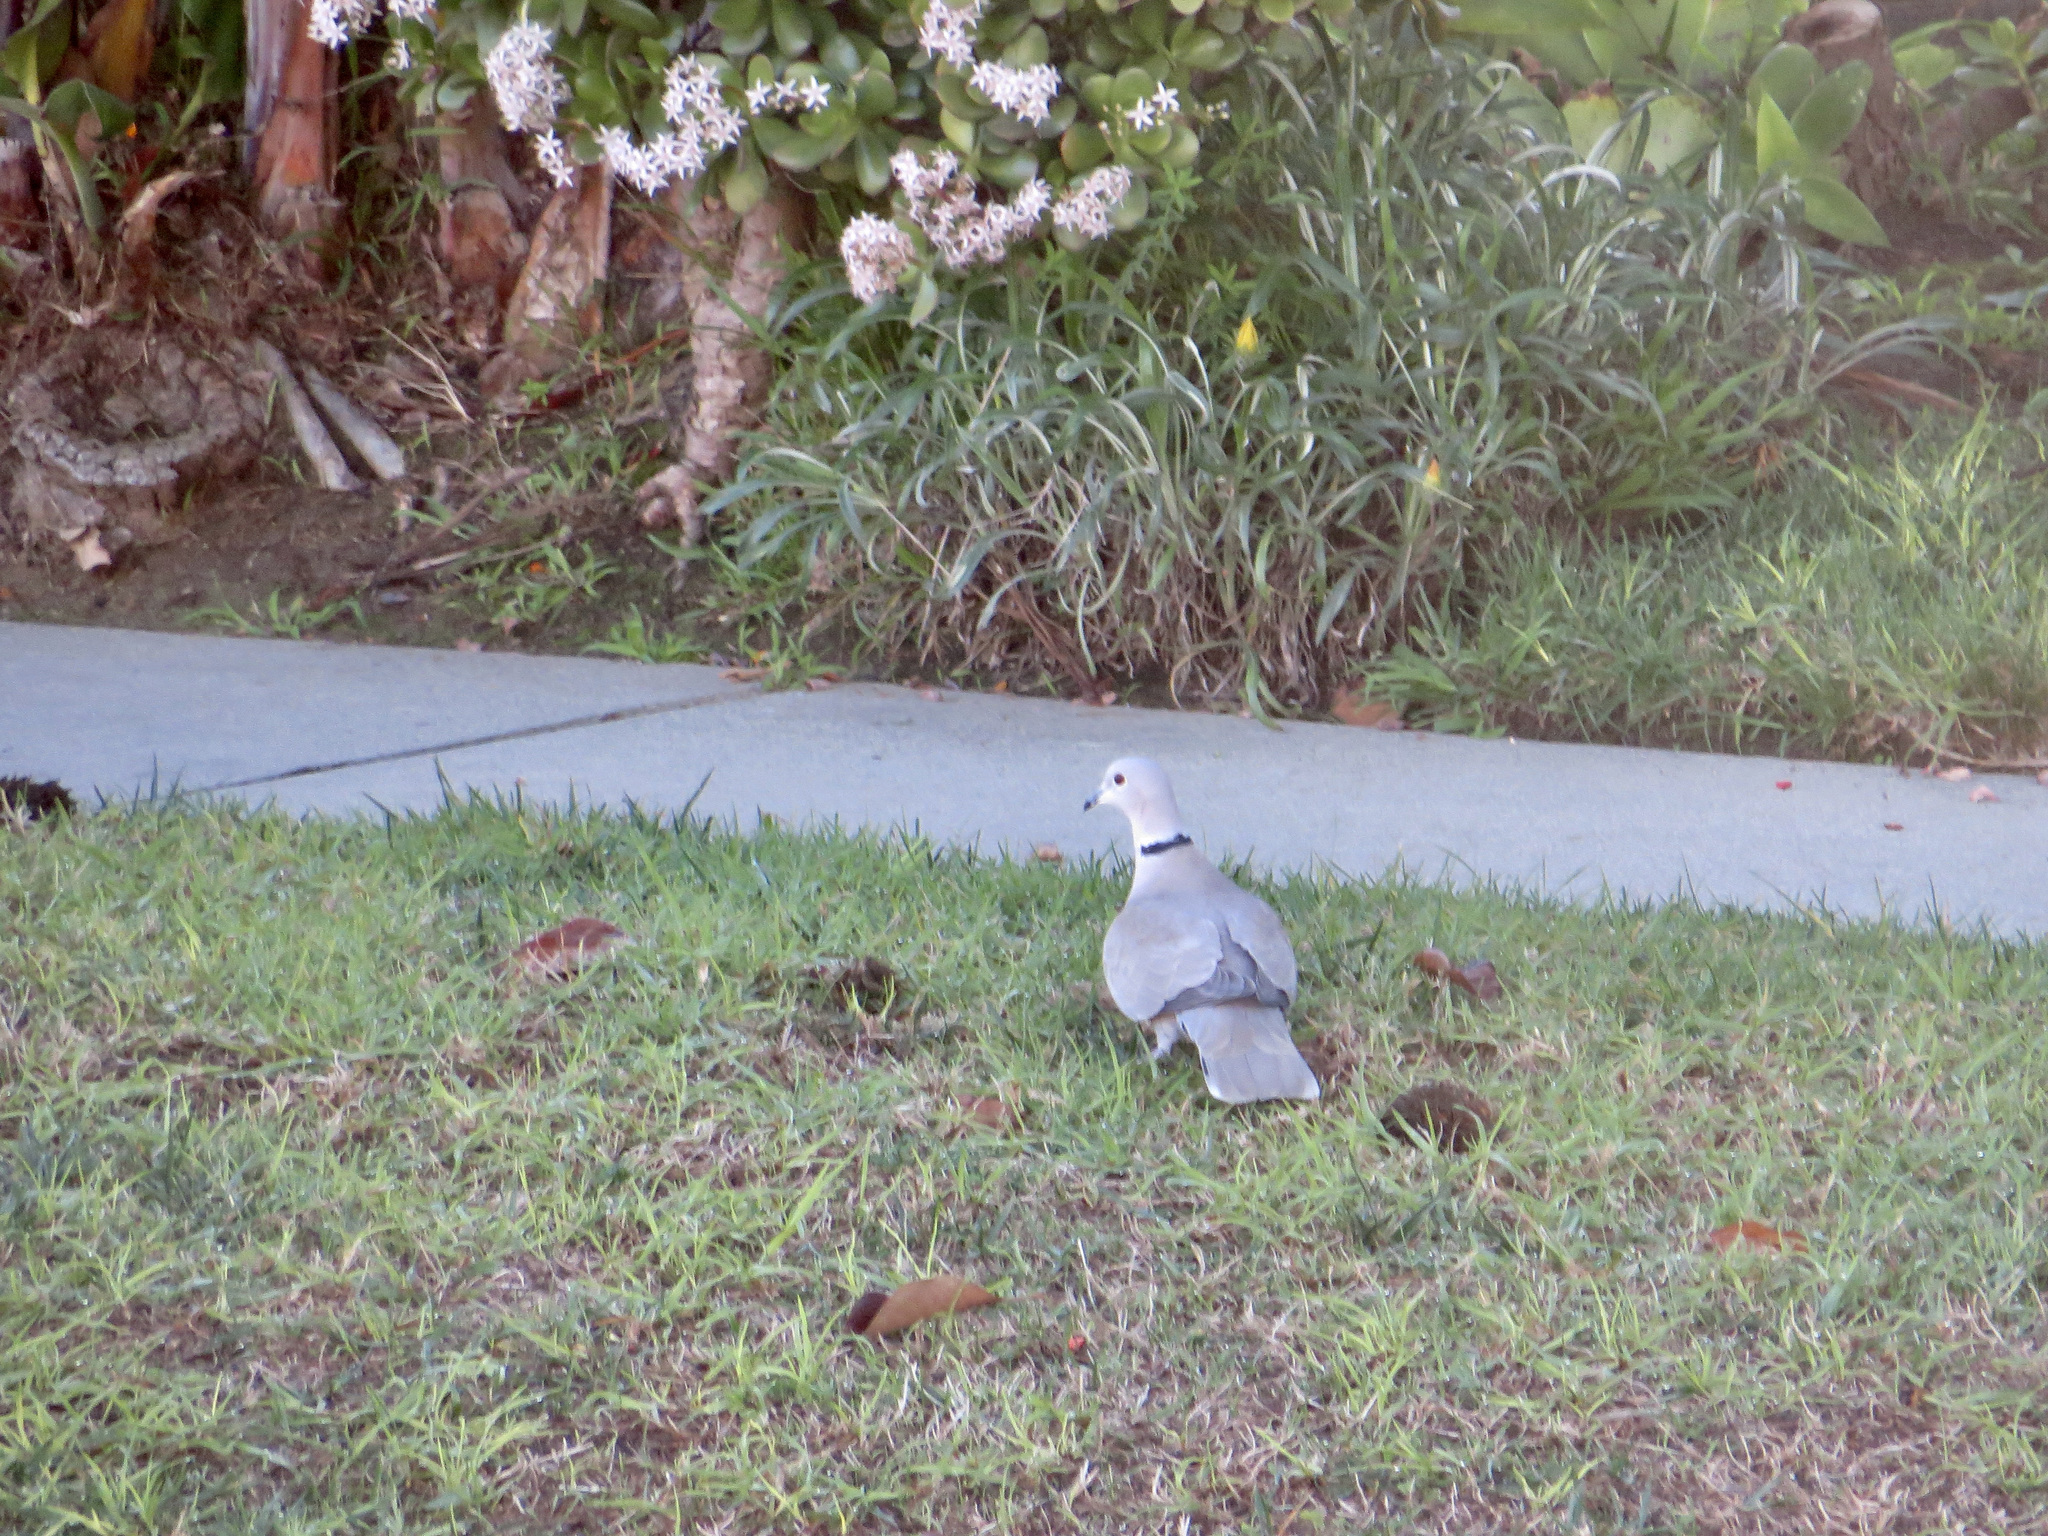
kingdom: Animalia
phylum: Chordata
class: Aves
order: Columbiformes
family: Columbidae
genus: Streptopelia
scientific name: Streptopelia decaocto
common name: Eurasian collared dove
